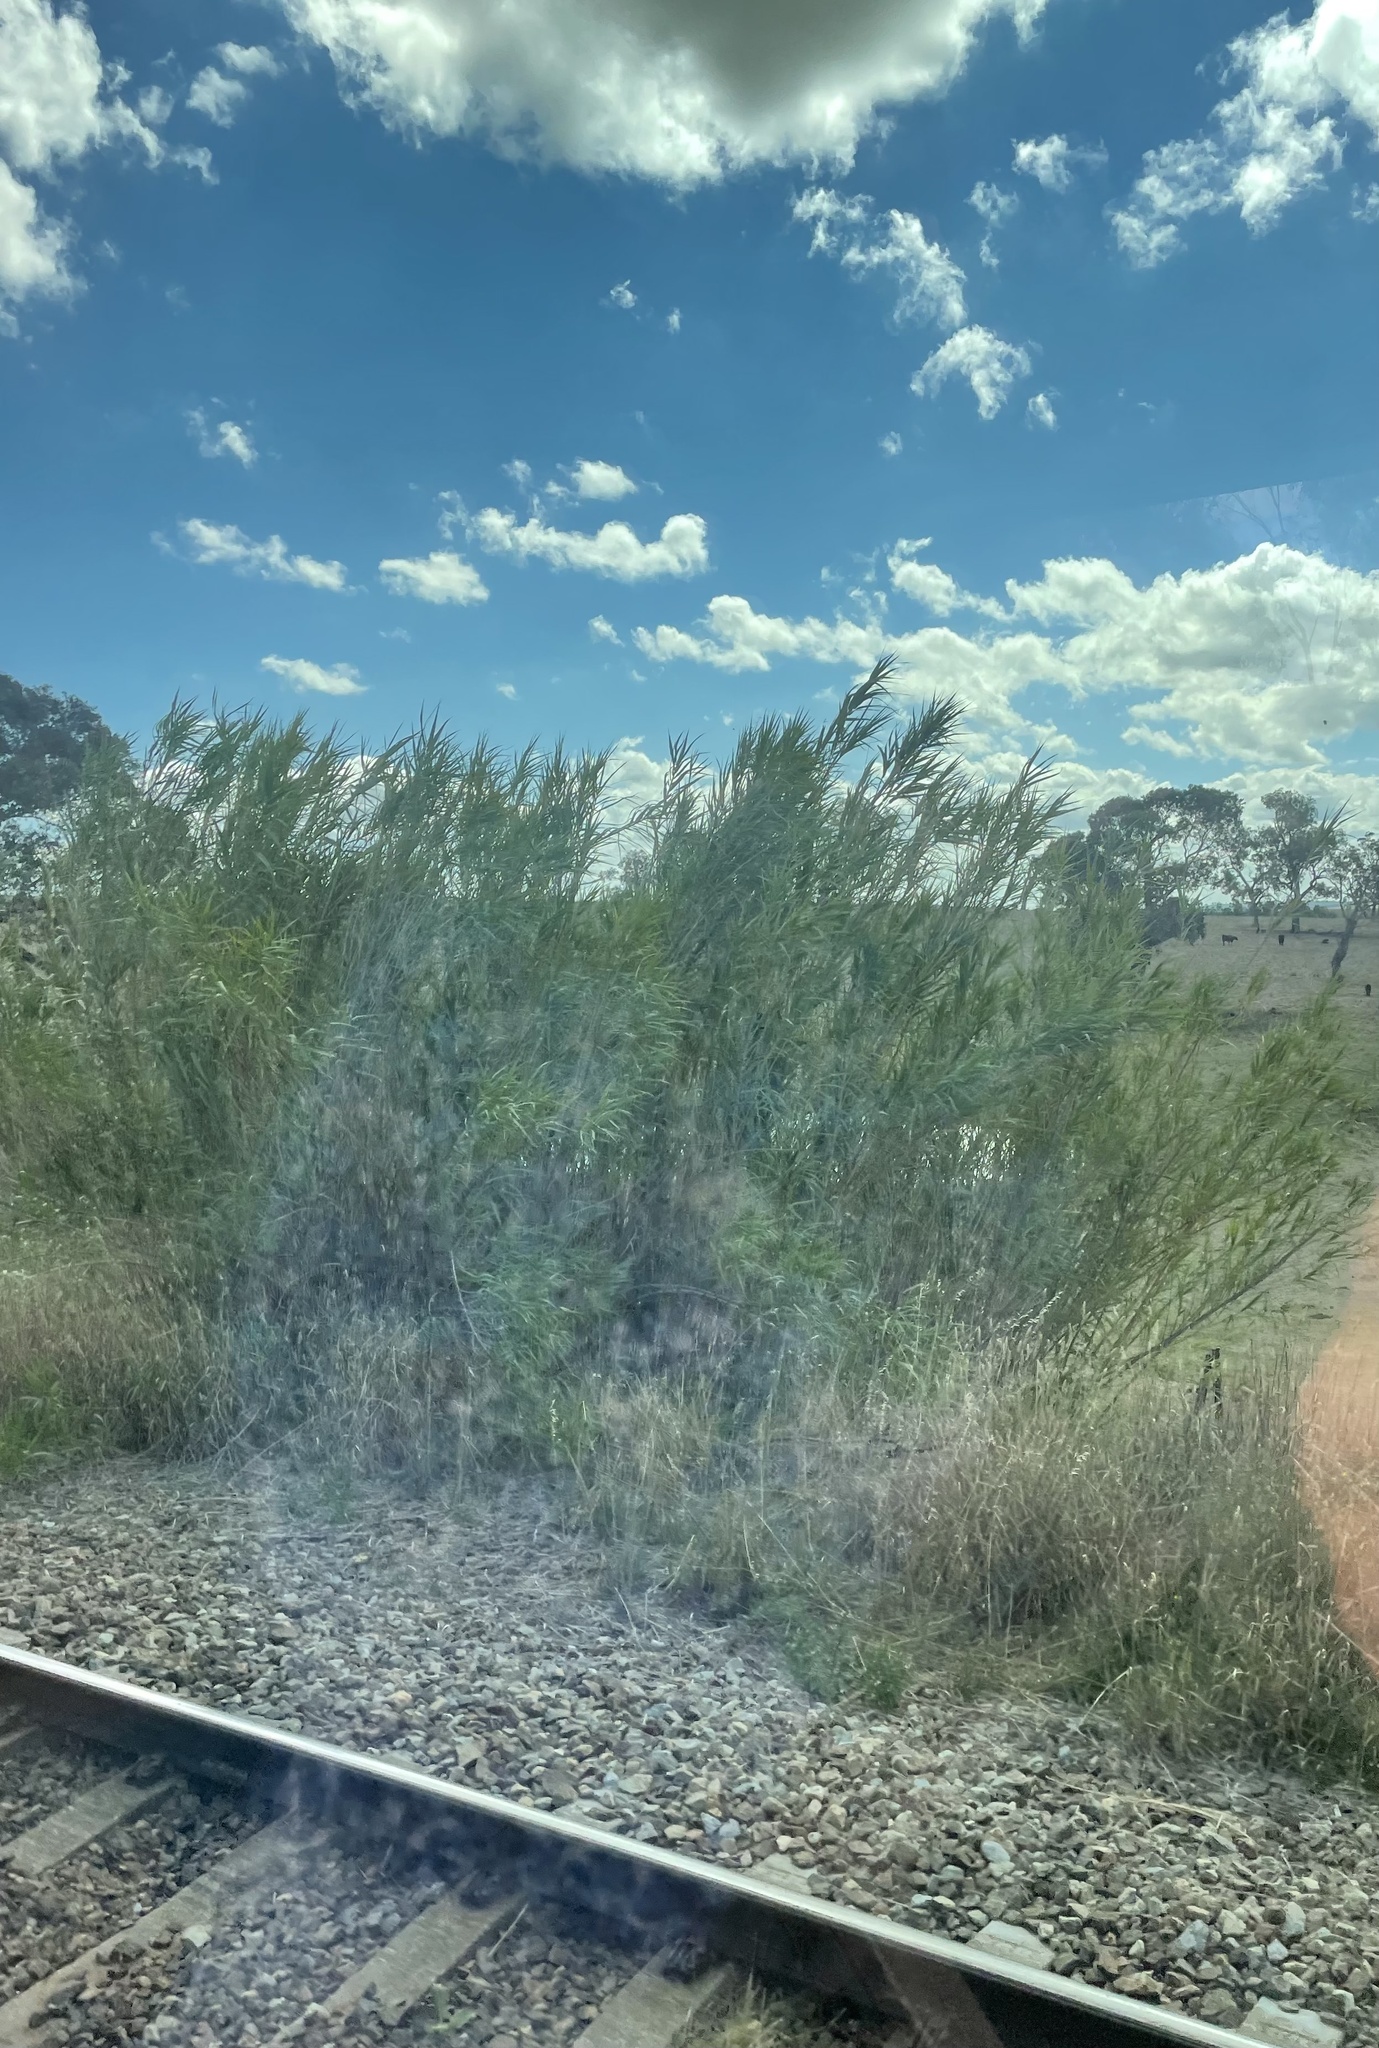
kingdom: Plantae
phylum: Tracheophyta
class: Liliopsida
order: Poales
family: Poaceae
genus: Arundo
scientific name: Arundo donax
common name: Giant reed
